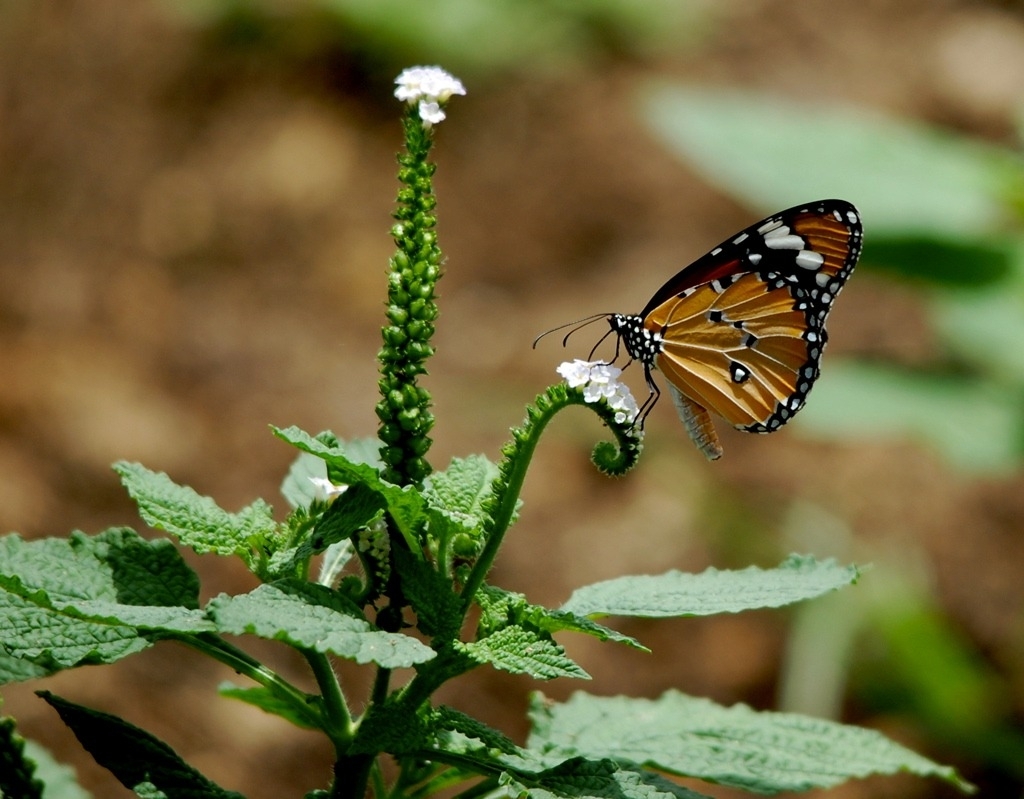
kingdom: Animalia
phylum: Arthropoda
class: Insecta
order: Lepidoptera
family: Nymphalidae
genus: Danaus
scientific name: Danaus chrysippus
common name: Plain tiger
